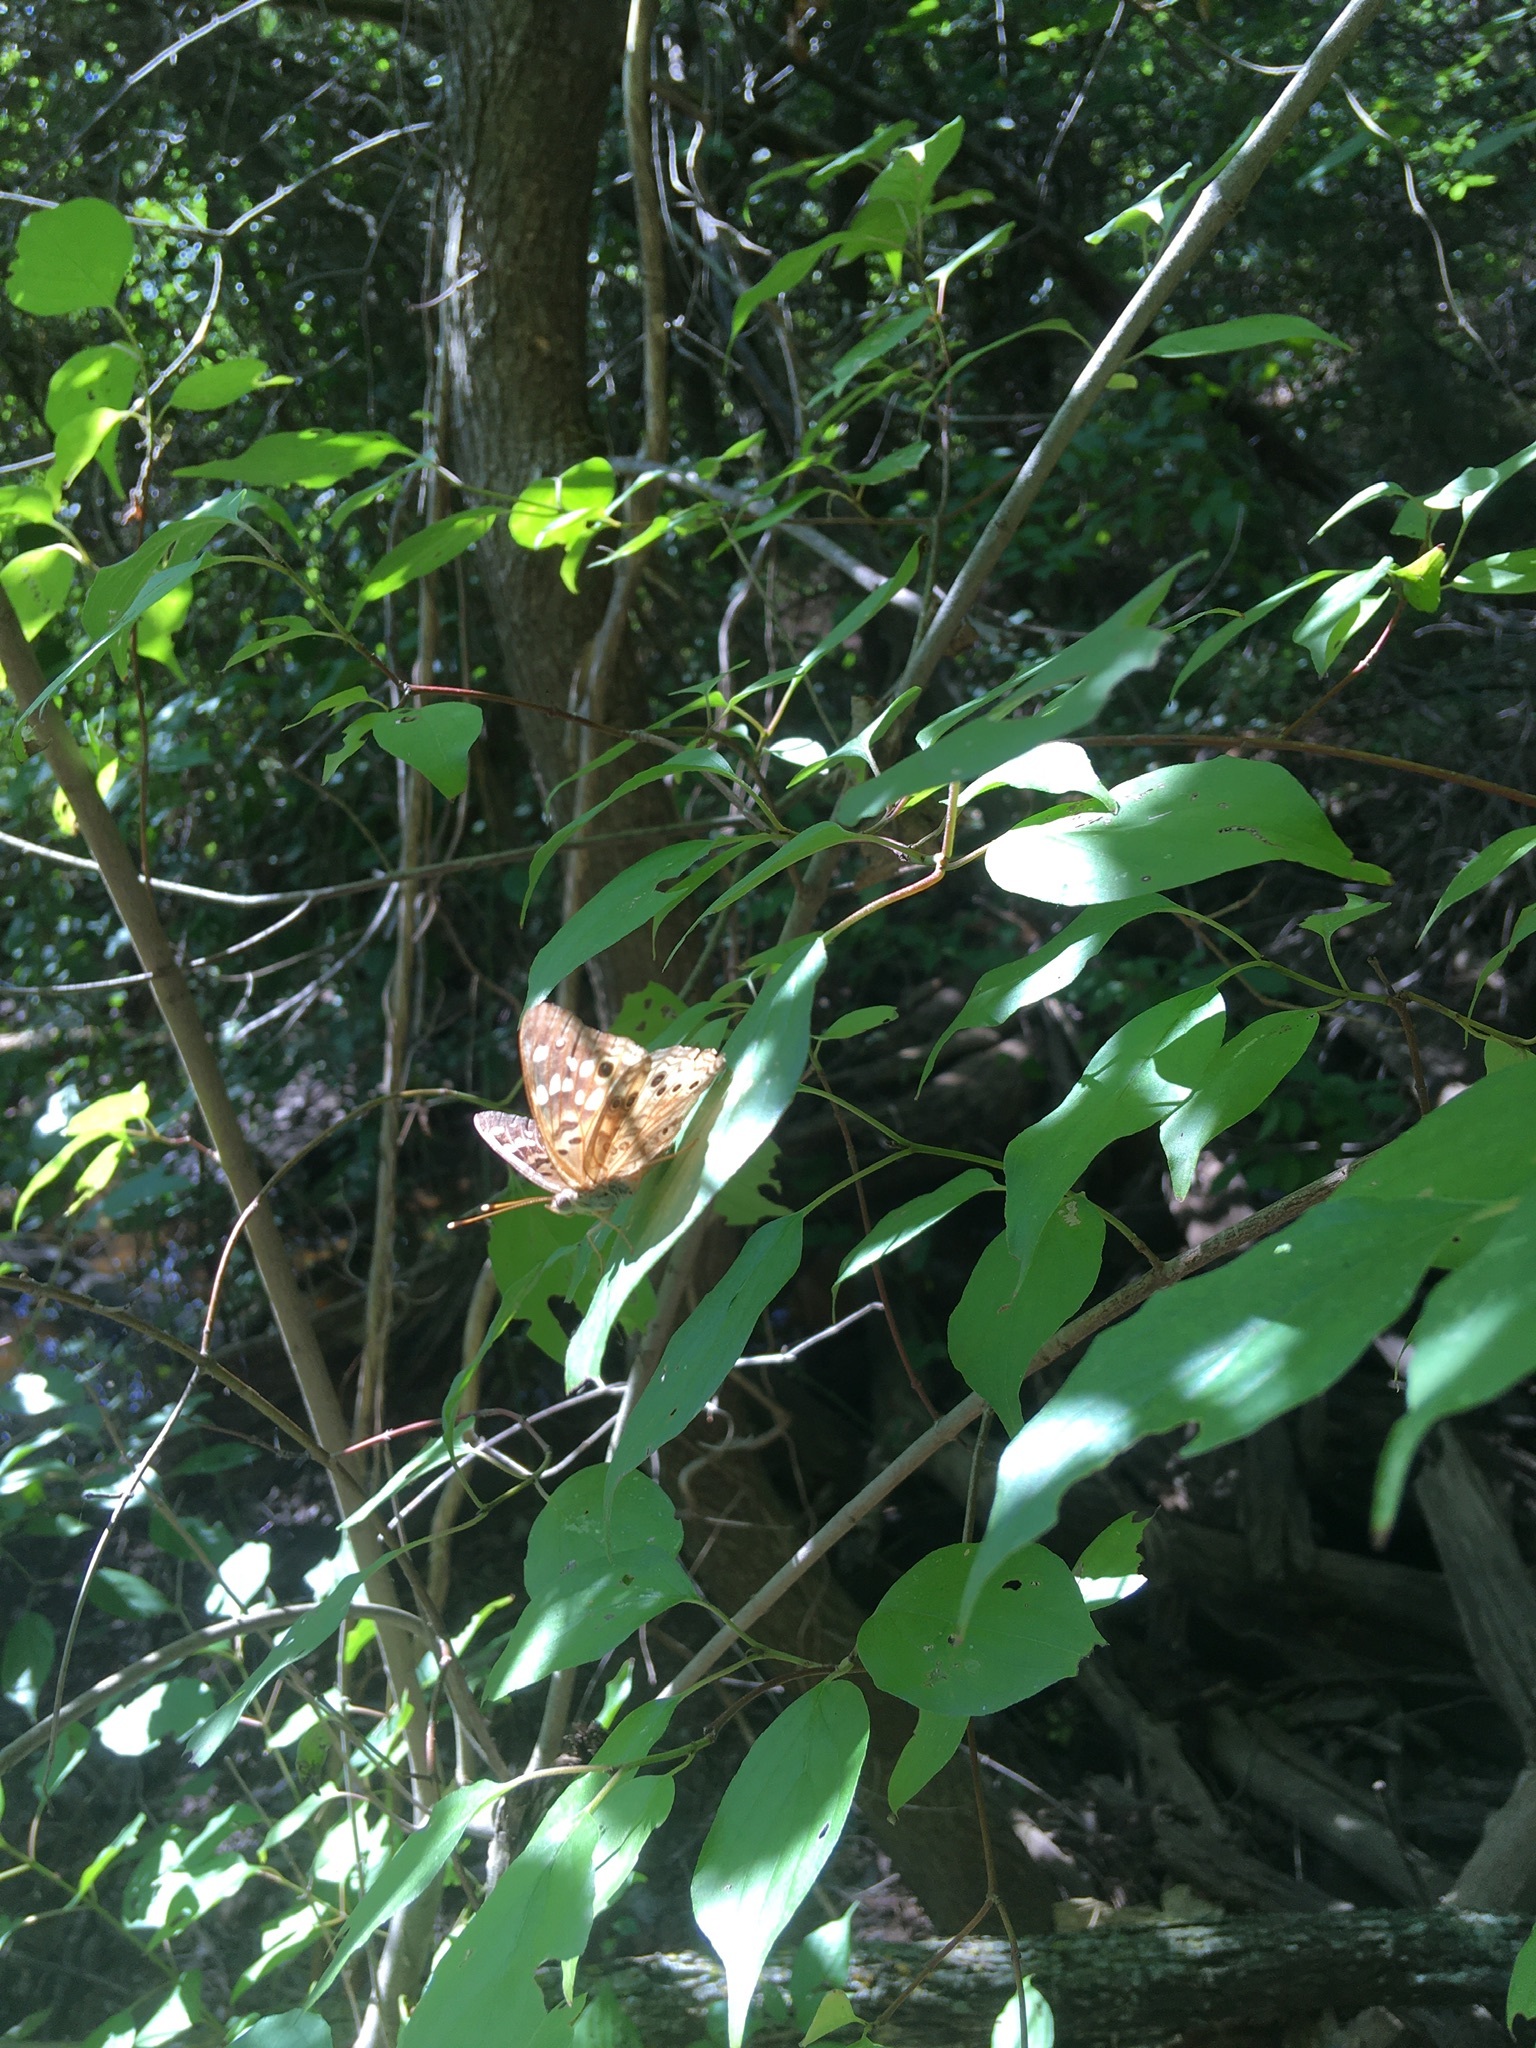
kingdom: Animalia
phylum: Arthropoda
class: Insecta
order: Lepidoptera
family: Nymphalidae
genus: Asterocampa
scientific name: Asterocampa celtis
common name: Hackberry emperor
